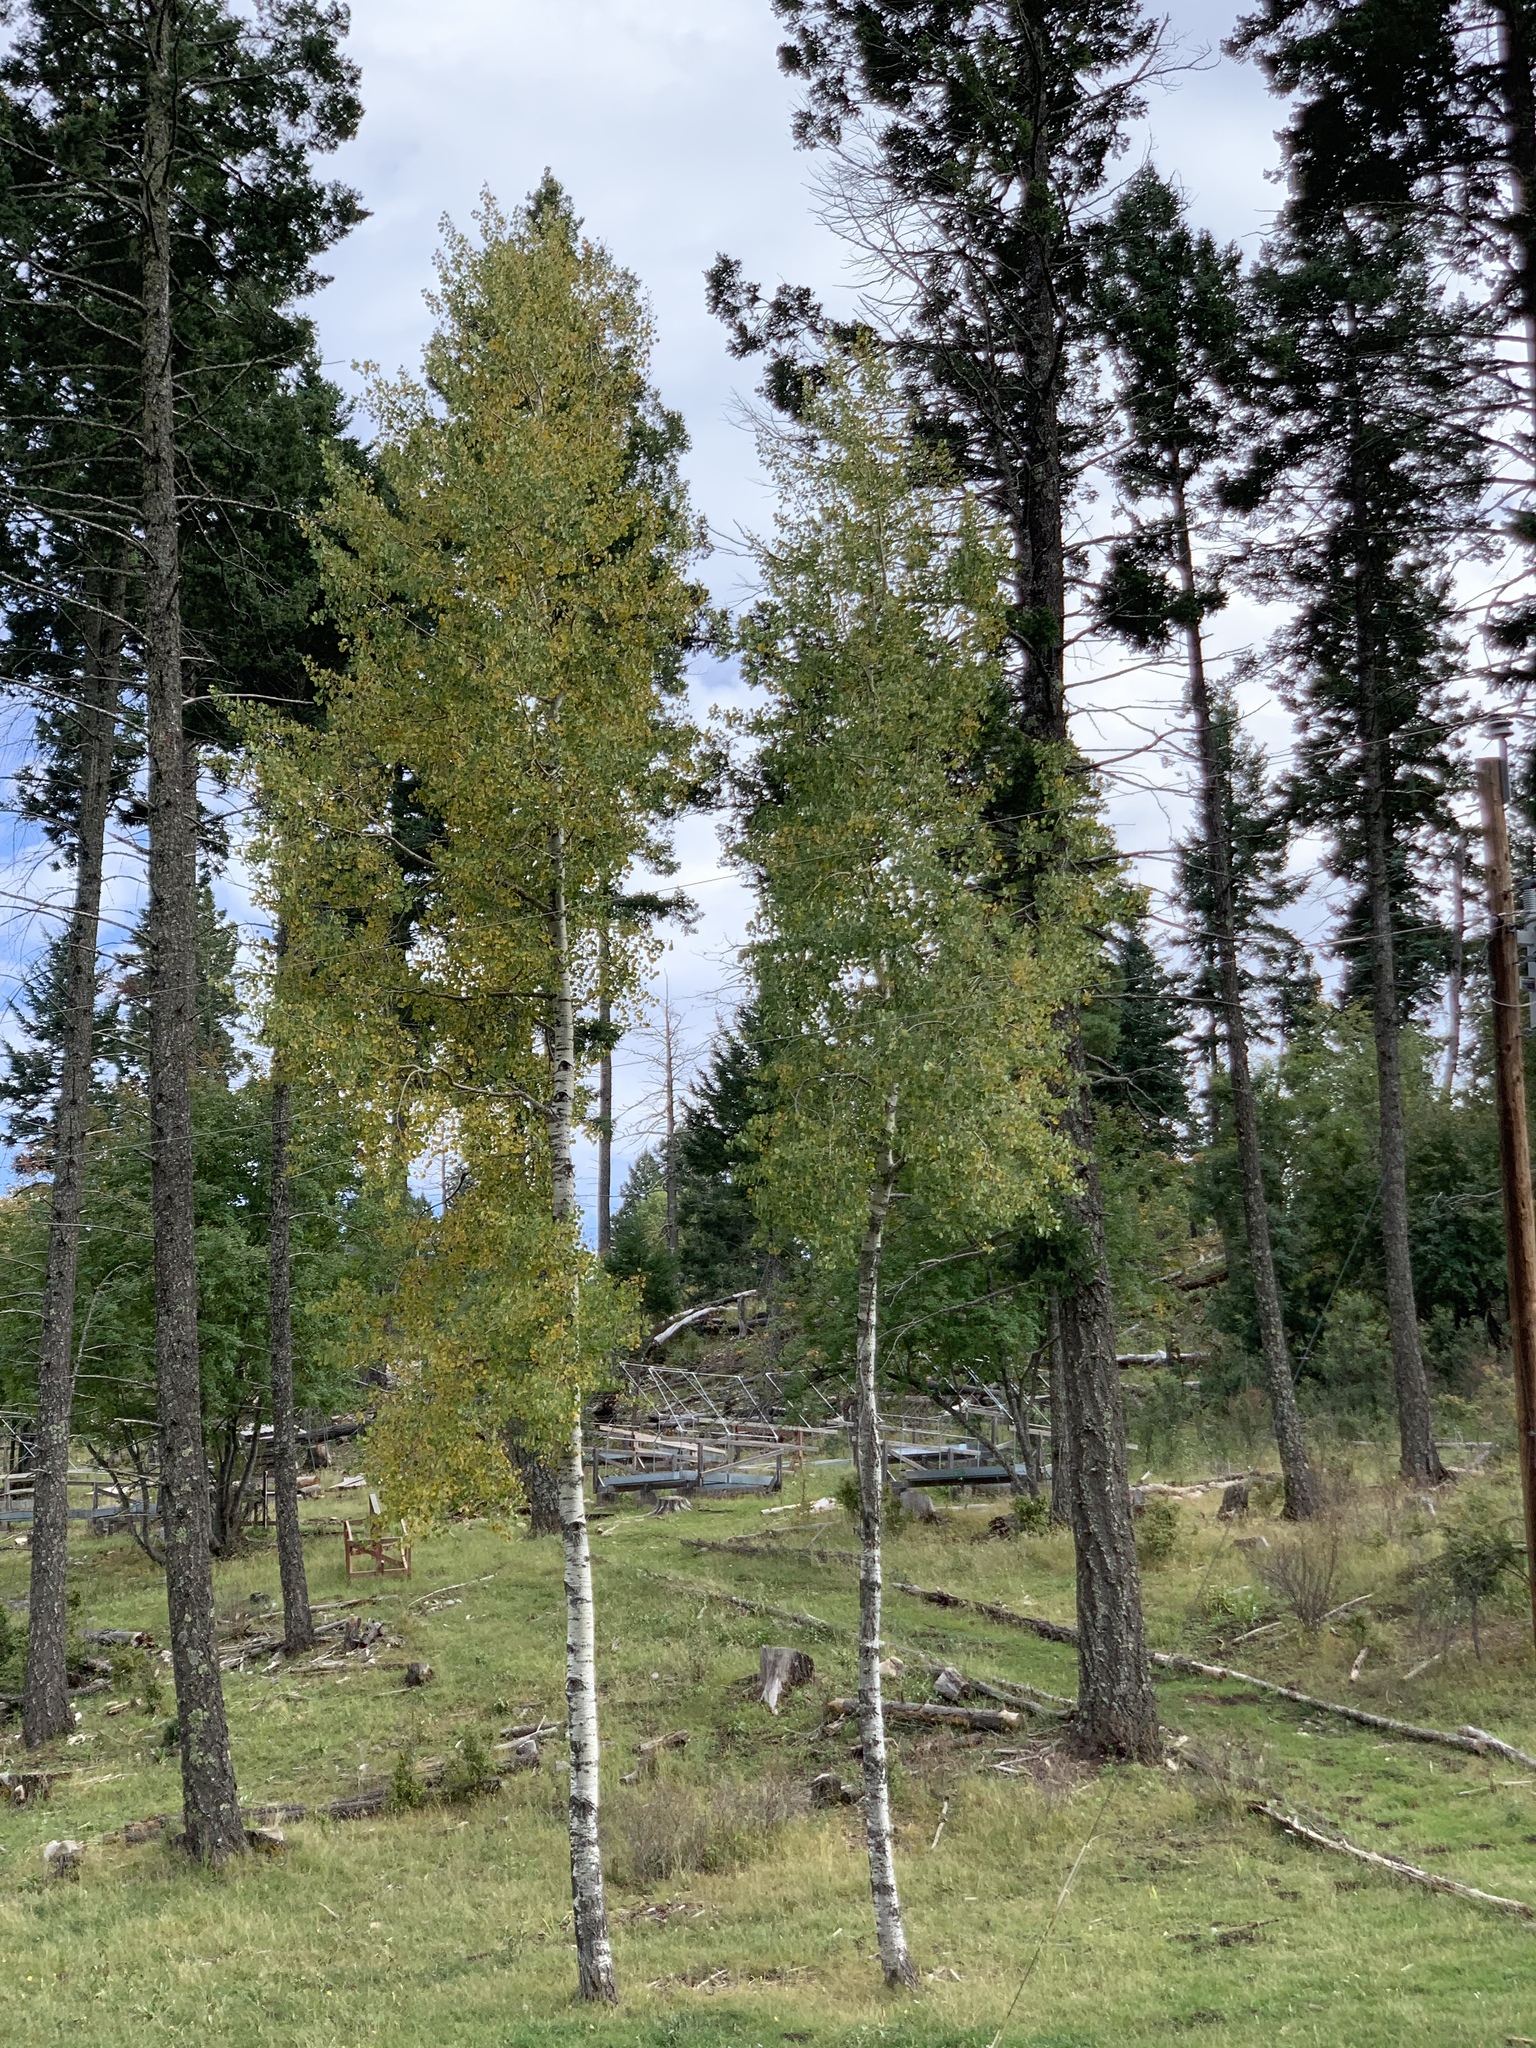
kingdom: Plantae
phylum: Tracheophyta
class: Magnoliopsida
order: Malpighiales
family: Salicaceae
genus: Populus
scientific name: Populus tremuloides
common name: Quaking aspen
